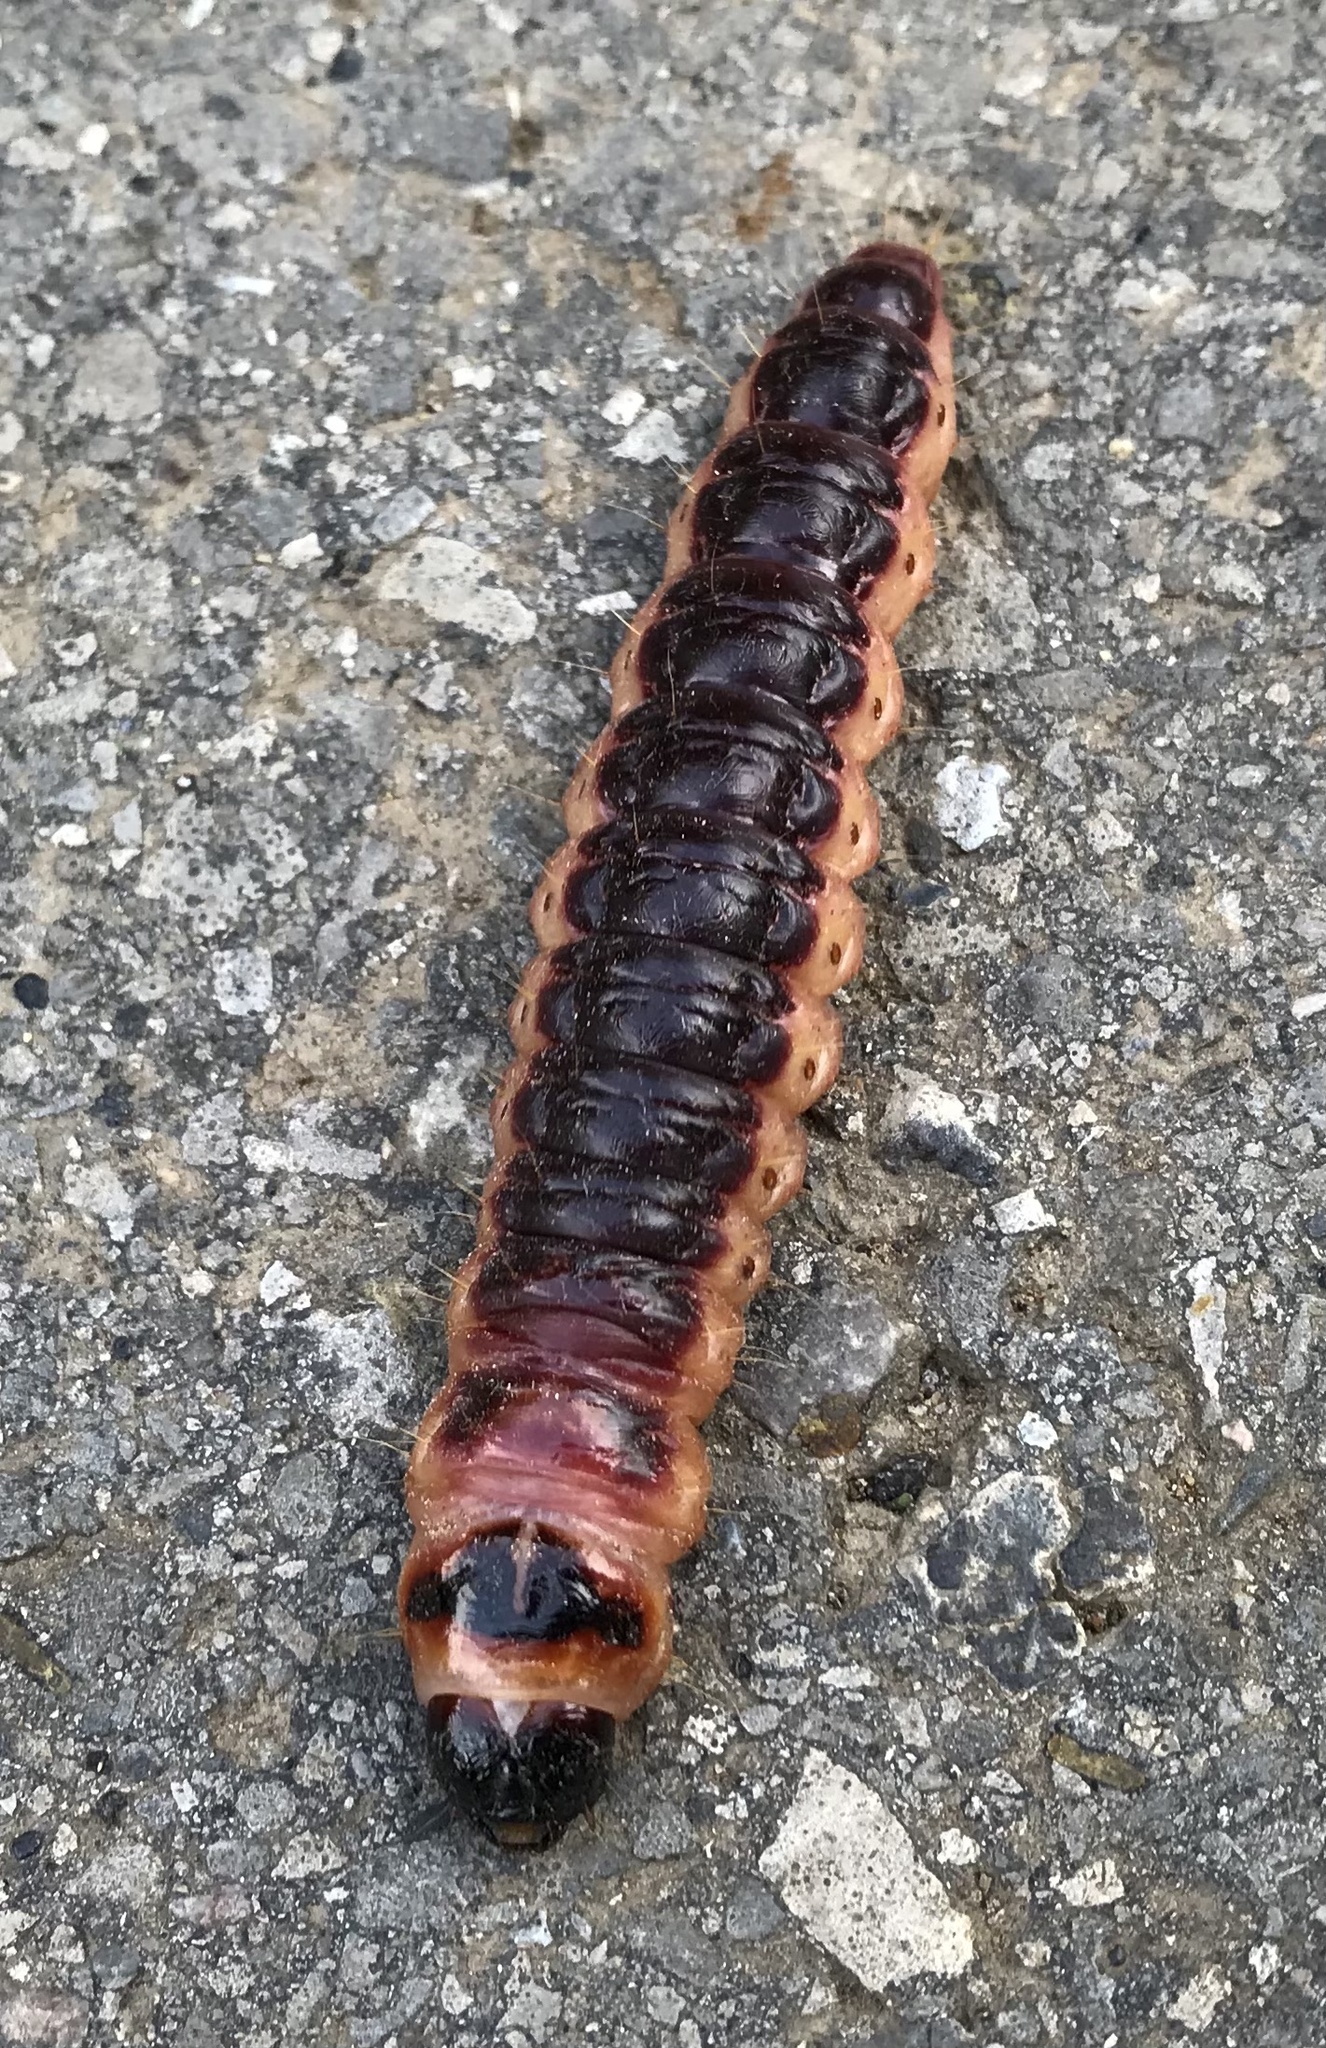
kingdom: Animalia
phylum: Arthropoda
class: Insecta
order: Lepidoptera
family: Cossidae
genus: Cossus
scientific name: Cossus cossus
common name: Goat moth
